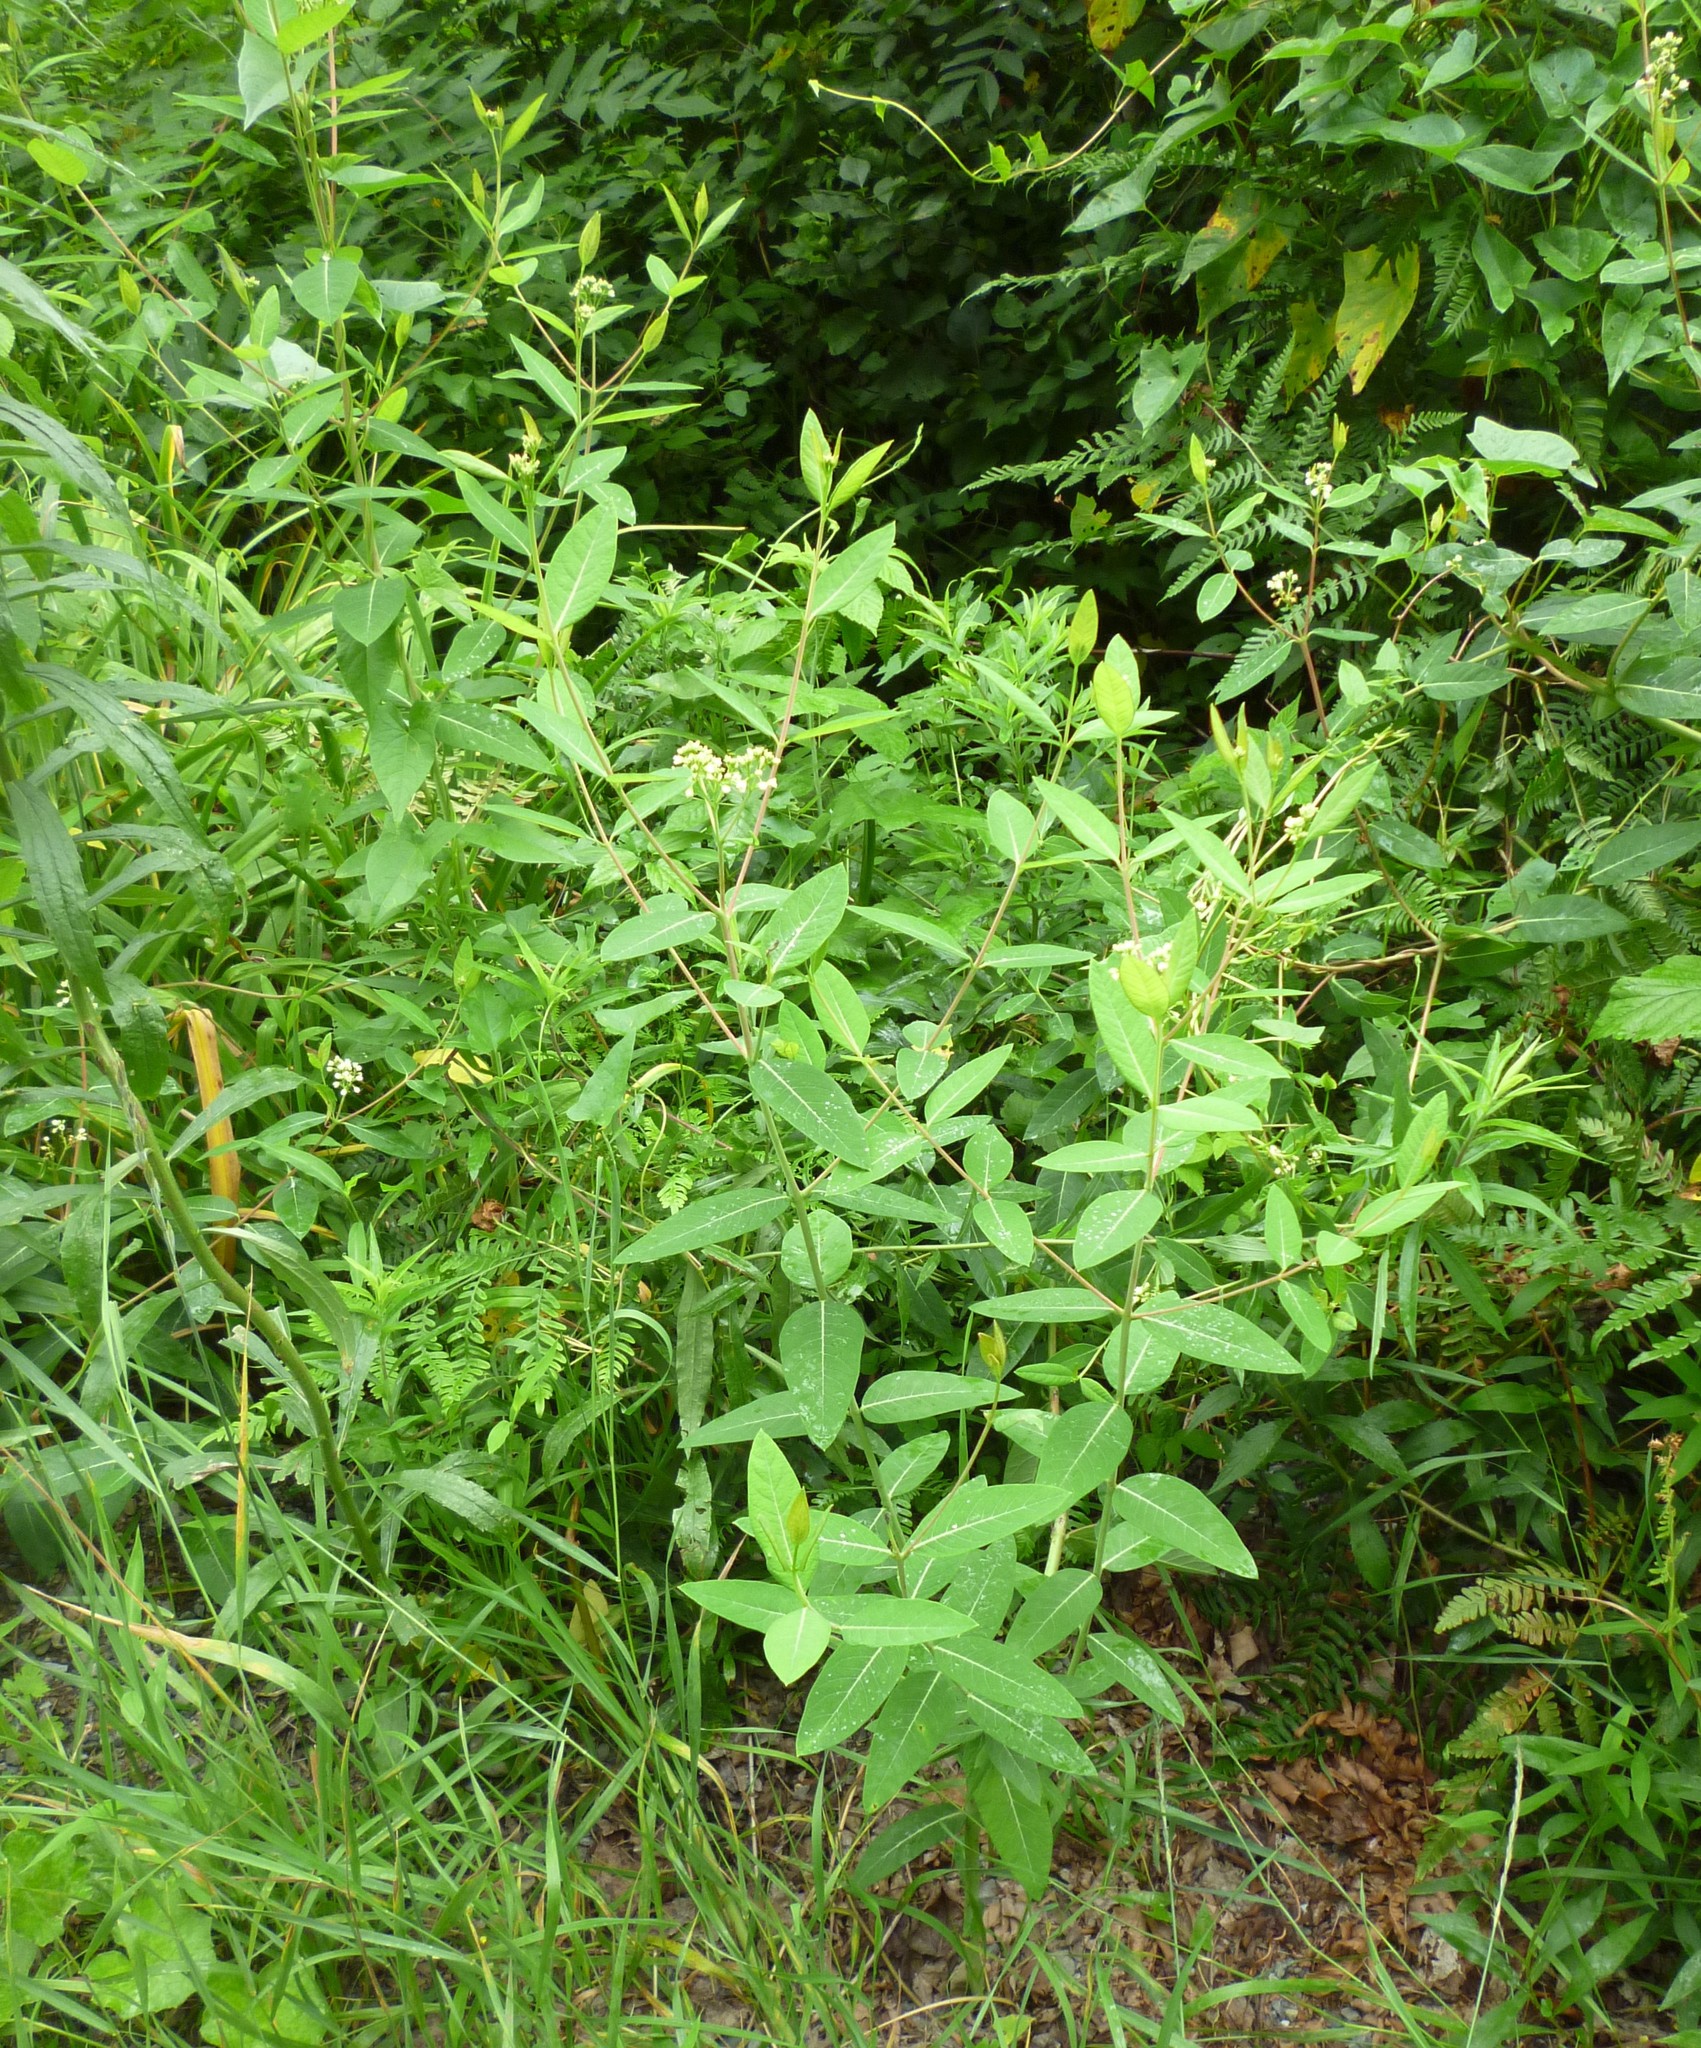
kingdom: Plantae
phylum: Tracheophyta
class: Magnoliopsida
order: Gentianales
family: Apocynaceae
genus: Apocynum
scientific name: Apocynum cannabinum
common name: Hemp dogbane
